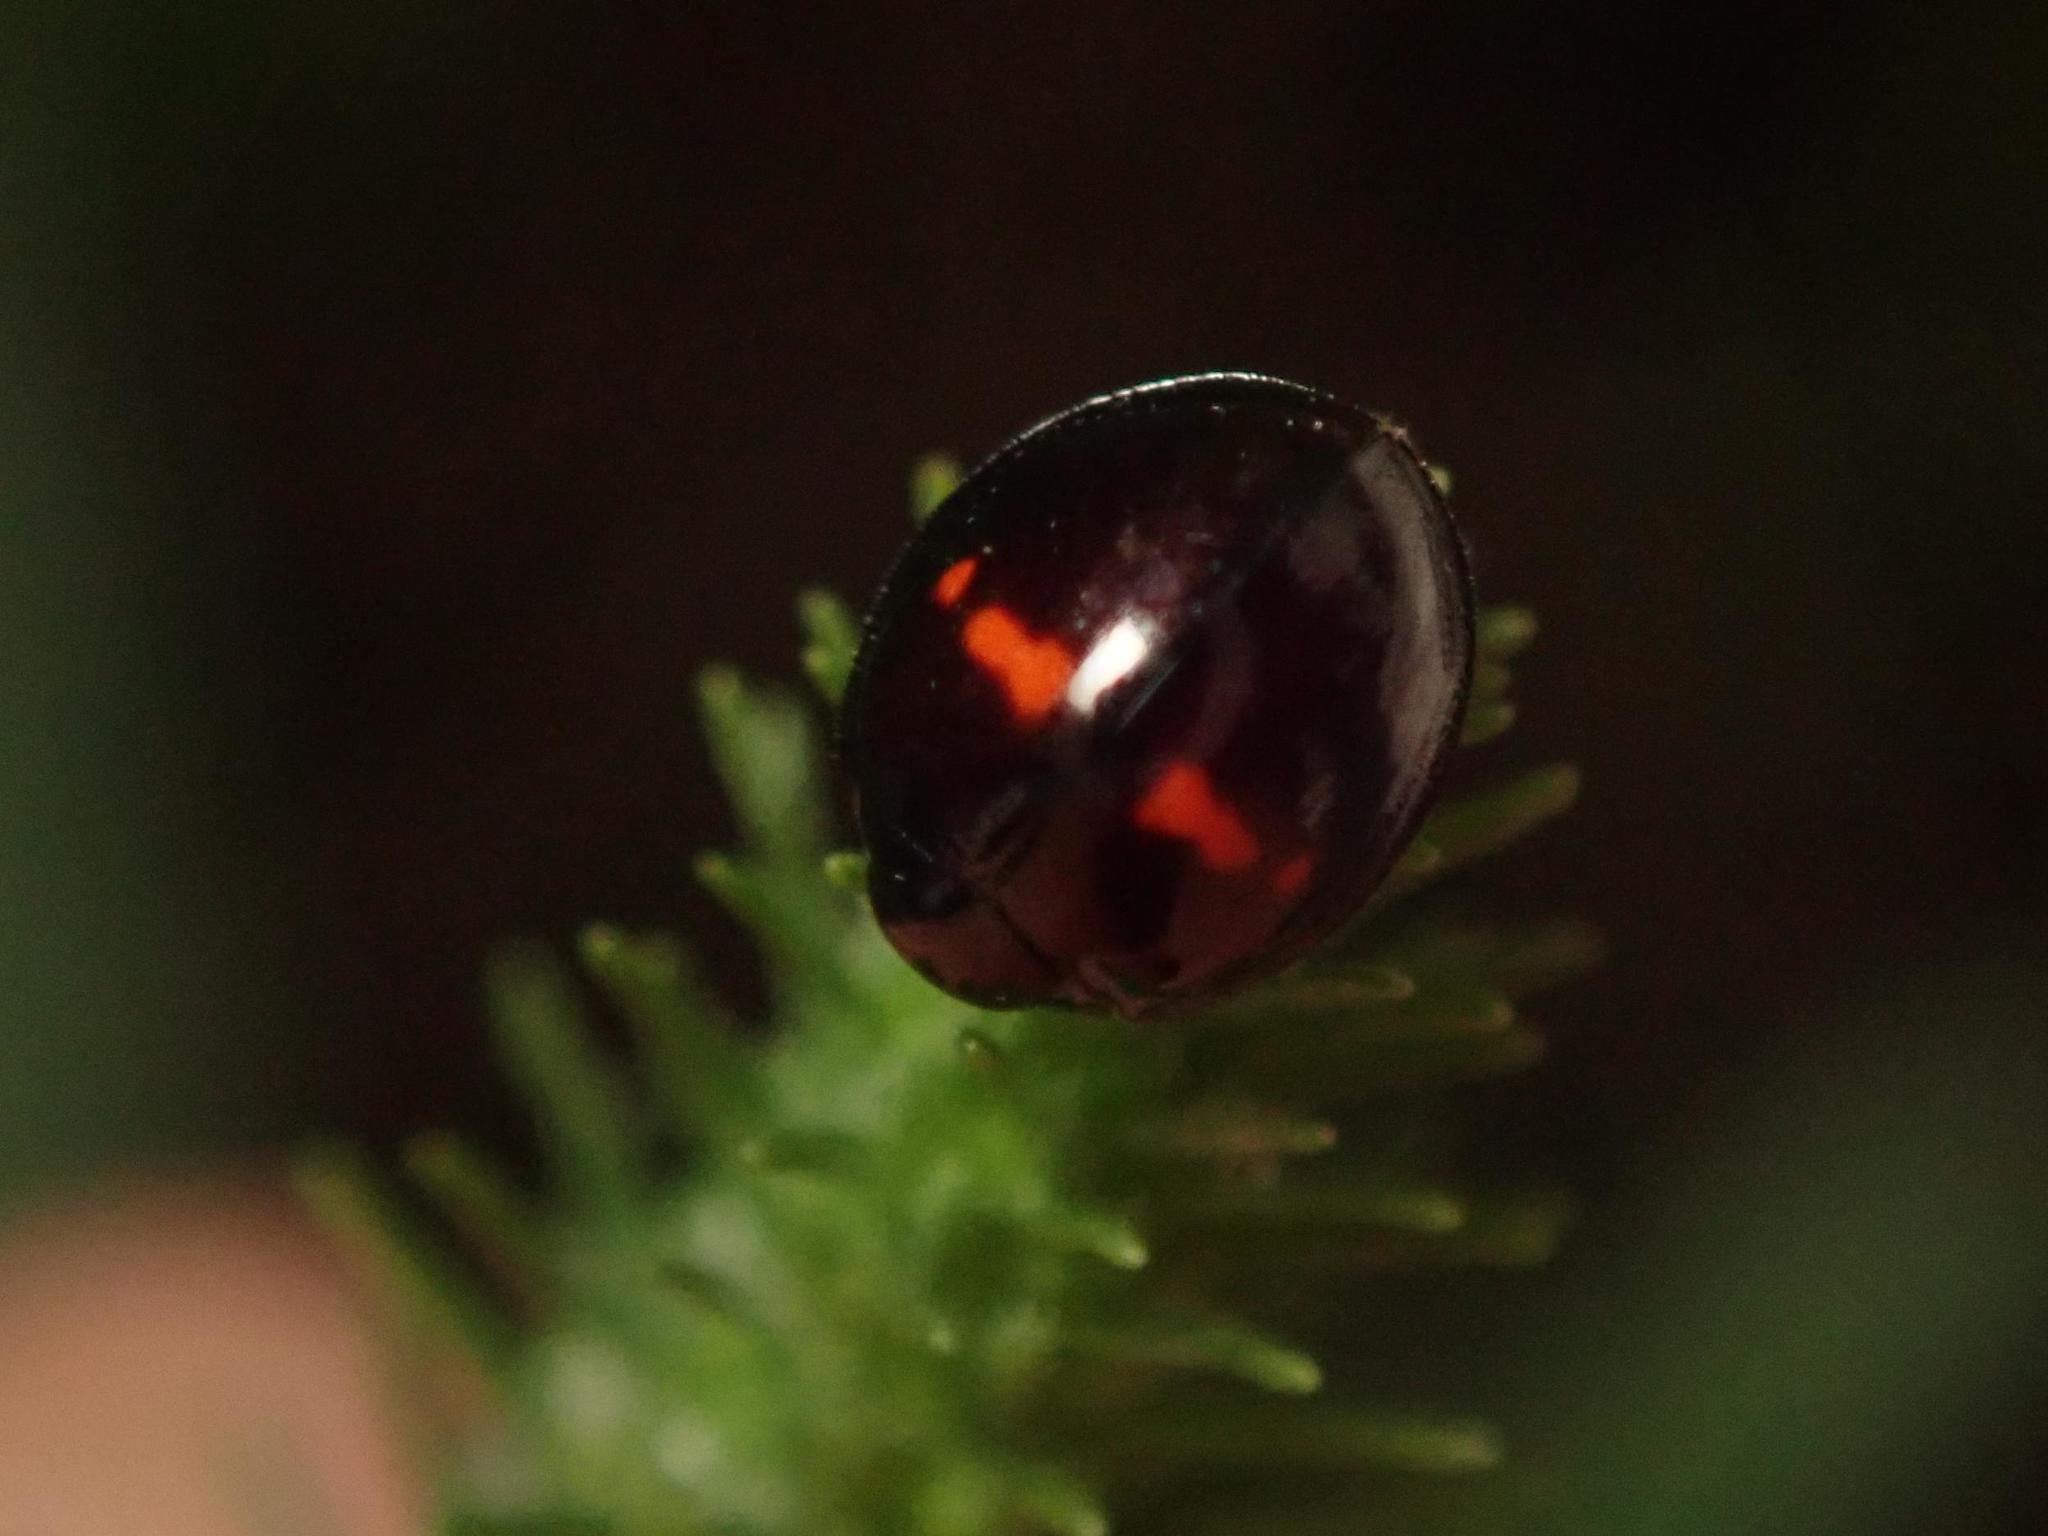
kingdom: Animalia
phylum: Arthropoda
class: Insecta
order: Coleoptera
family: Coccinellidae
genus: Chilocorus
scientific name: Chilocorus bipustulatus
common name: Heather ladybird
